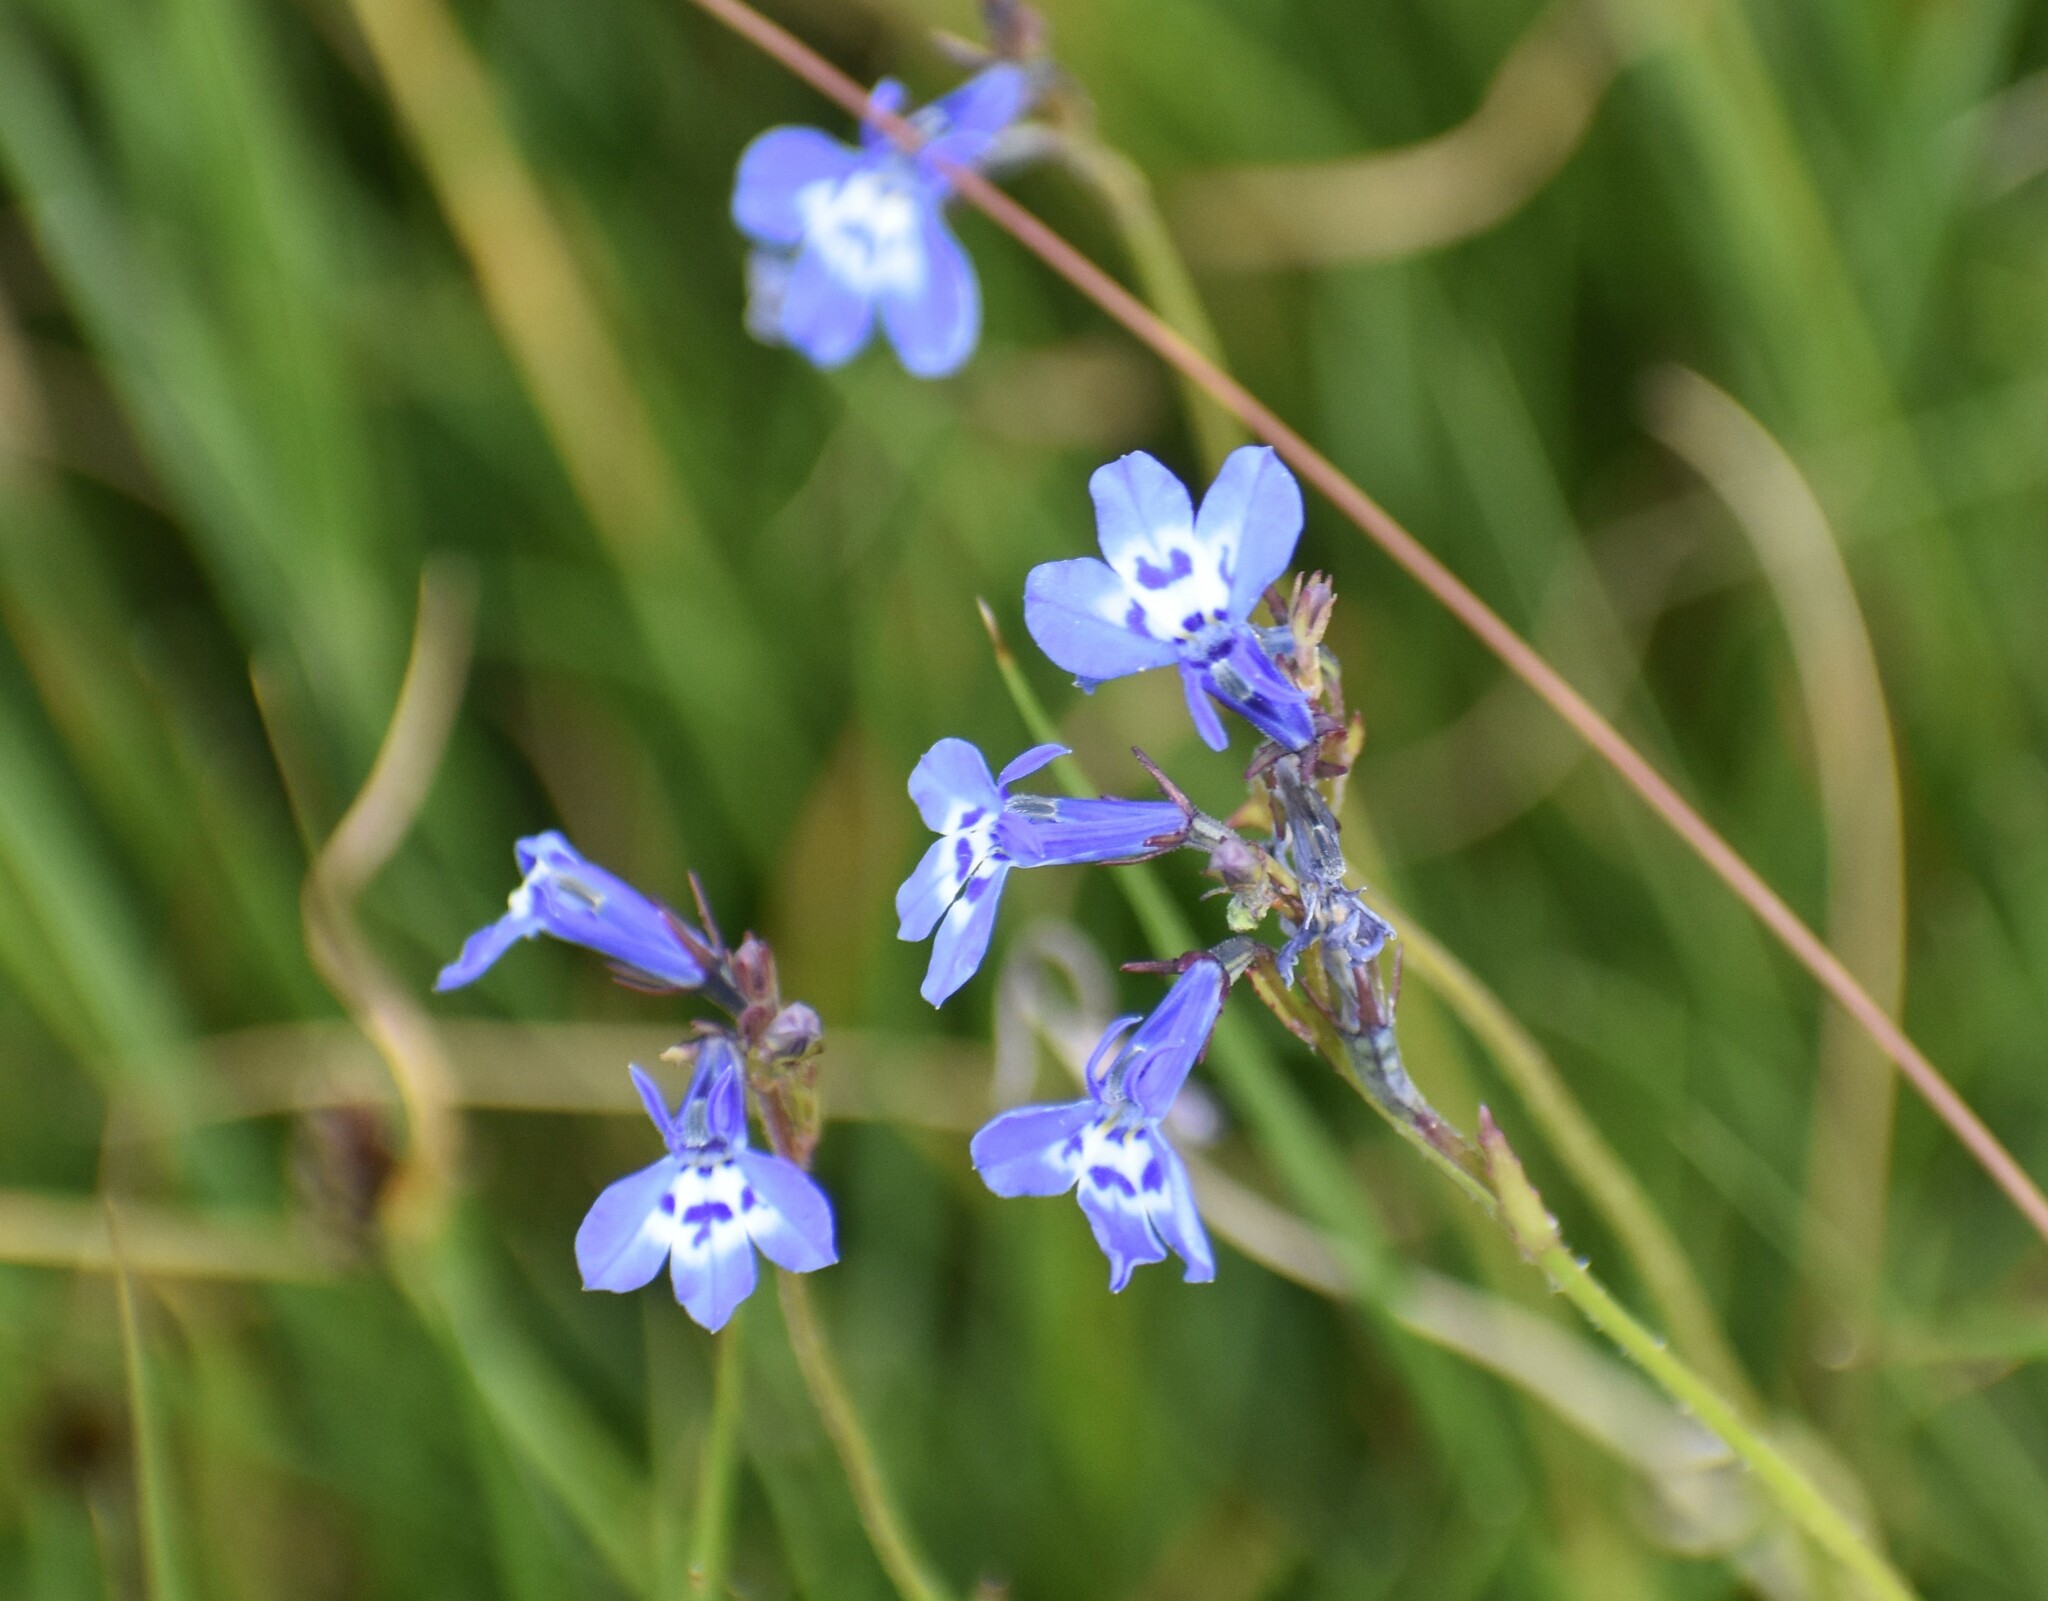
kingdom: Plantae
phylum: Tracheophyta
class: Magnoliopsida
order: Asterales
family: Campanulaceae
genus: Lobelia
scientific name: Lobelia flaccida
